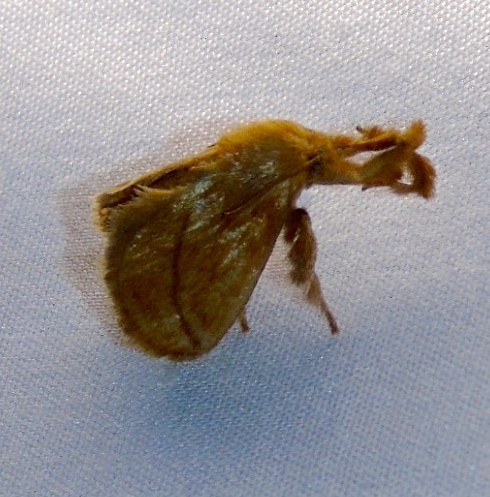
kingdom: Animalia
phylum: Arthropoda
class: Insecta
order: Lepidoptera
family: Limacodidae
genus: Perola
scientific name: Perola clara
